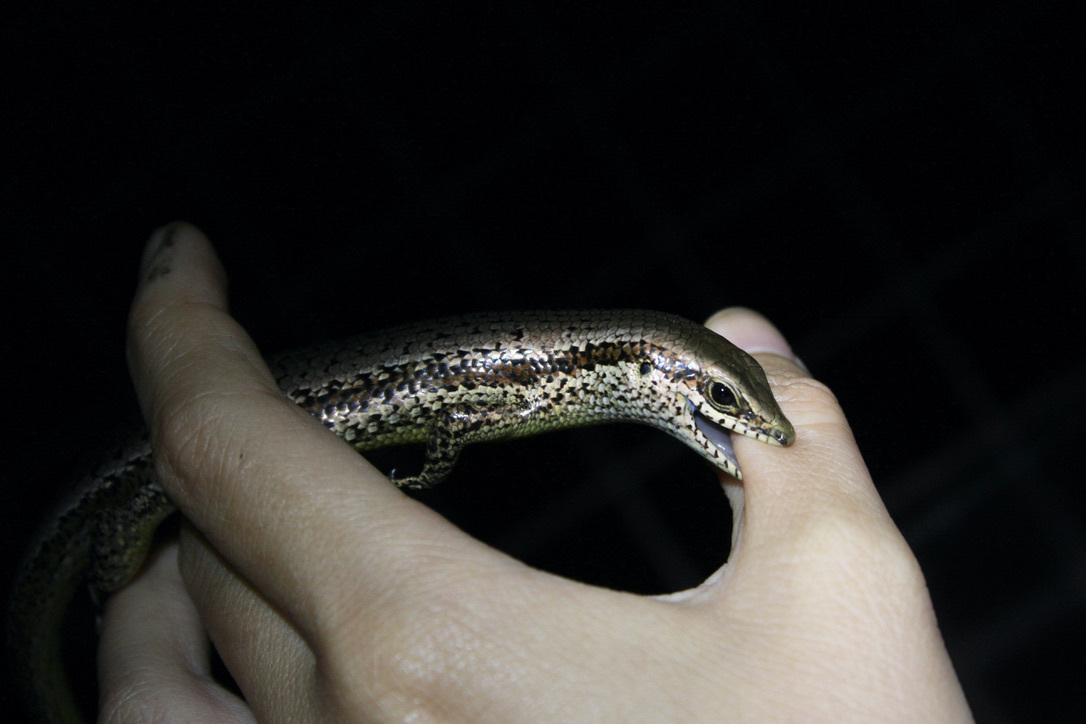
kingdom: Animalia
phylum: Chordata
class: Squamata
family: Scincidae
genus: Copeoglossum
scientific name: Copeoglossum aurae
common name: Greater windward skink
